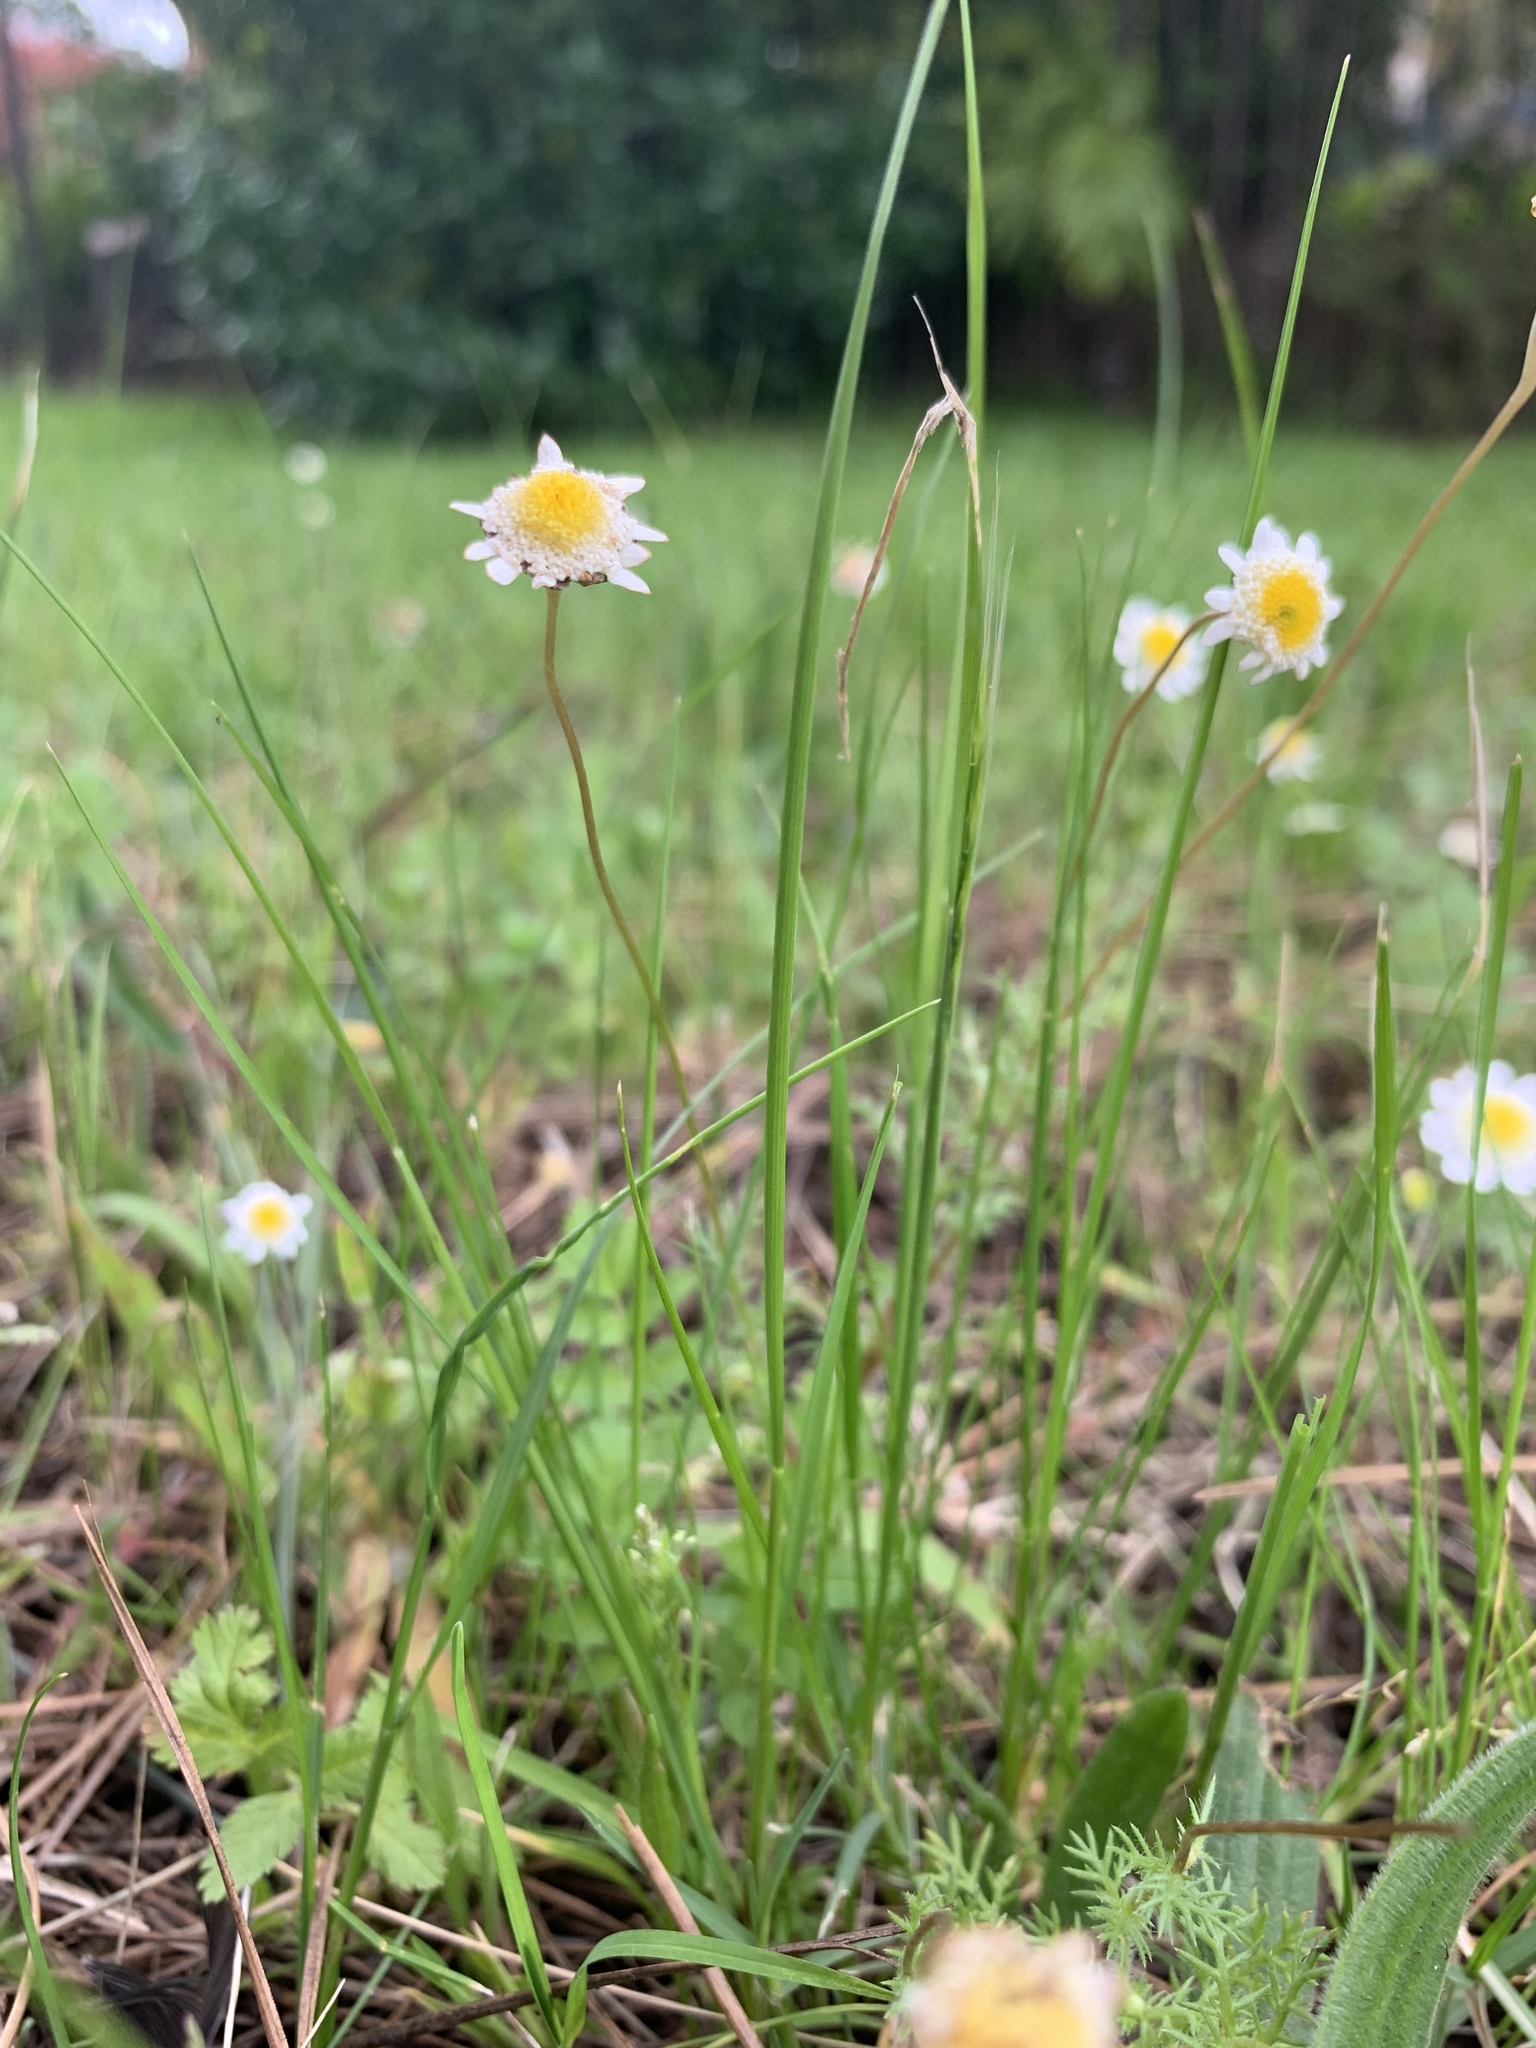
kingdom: Plantae
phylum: Tracheophyta
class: Magnoliopsida
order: Asterales
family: Asteraceae
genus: Cotula
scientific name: Cotula turbinata
